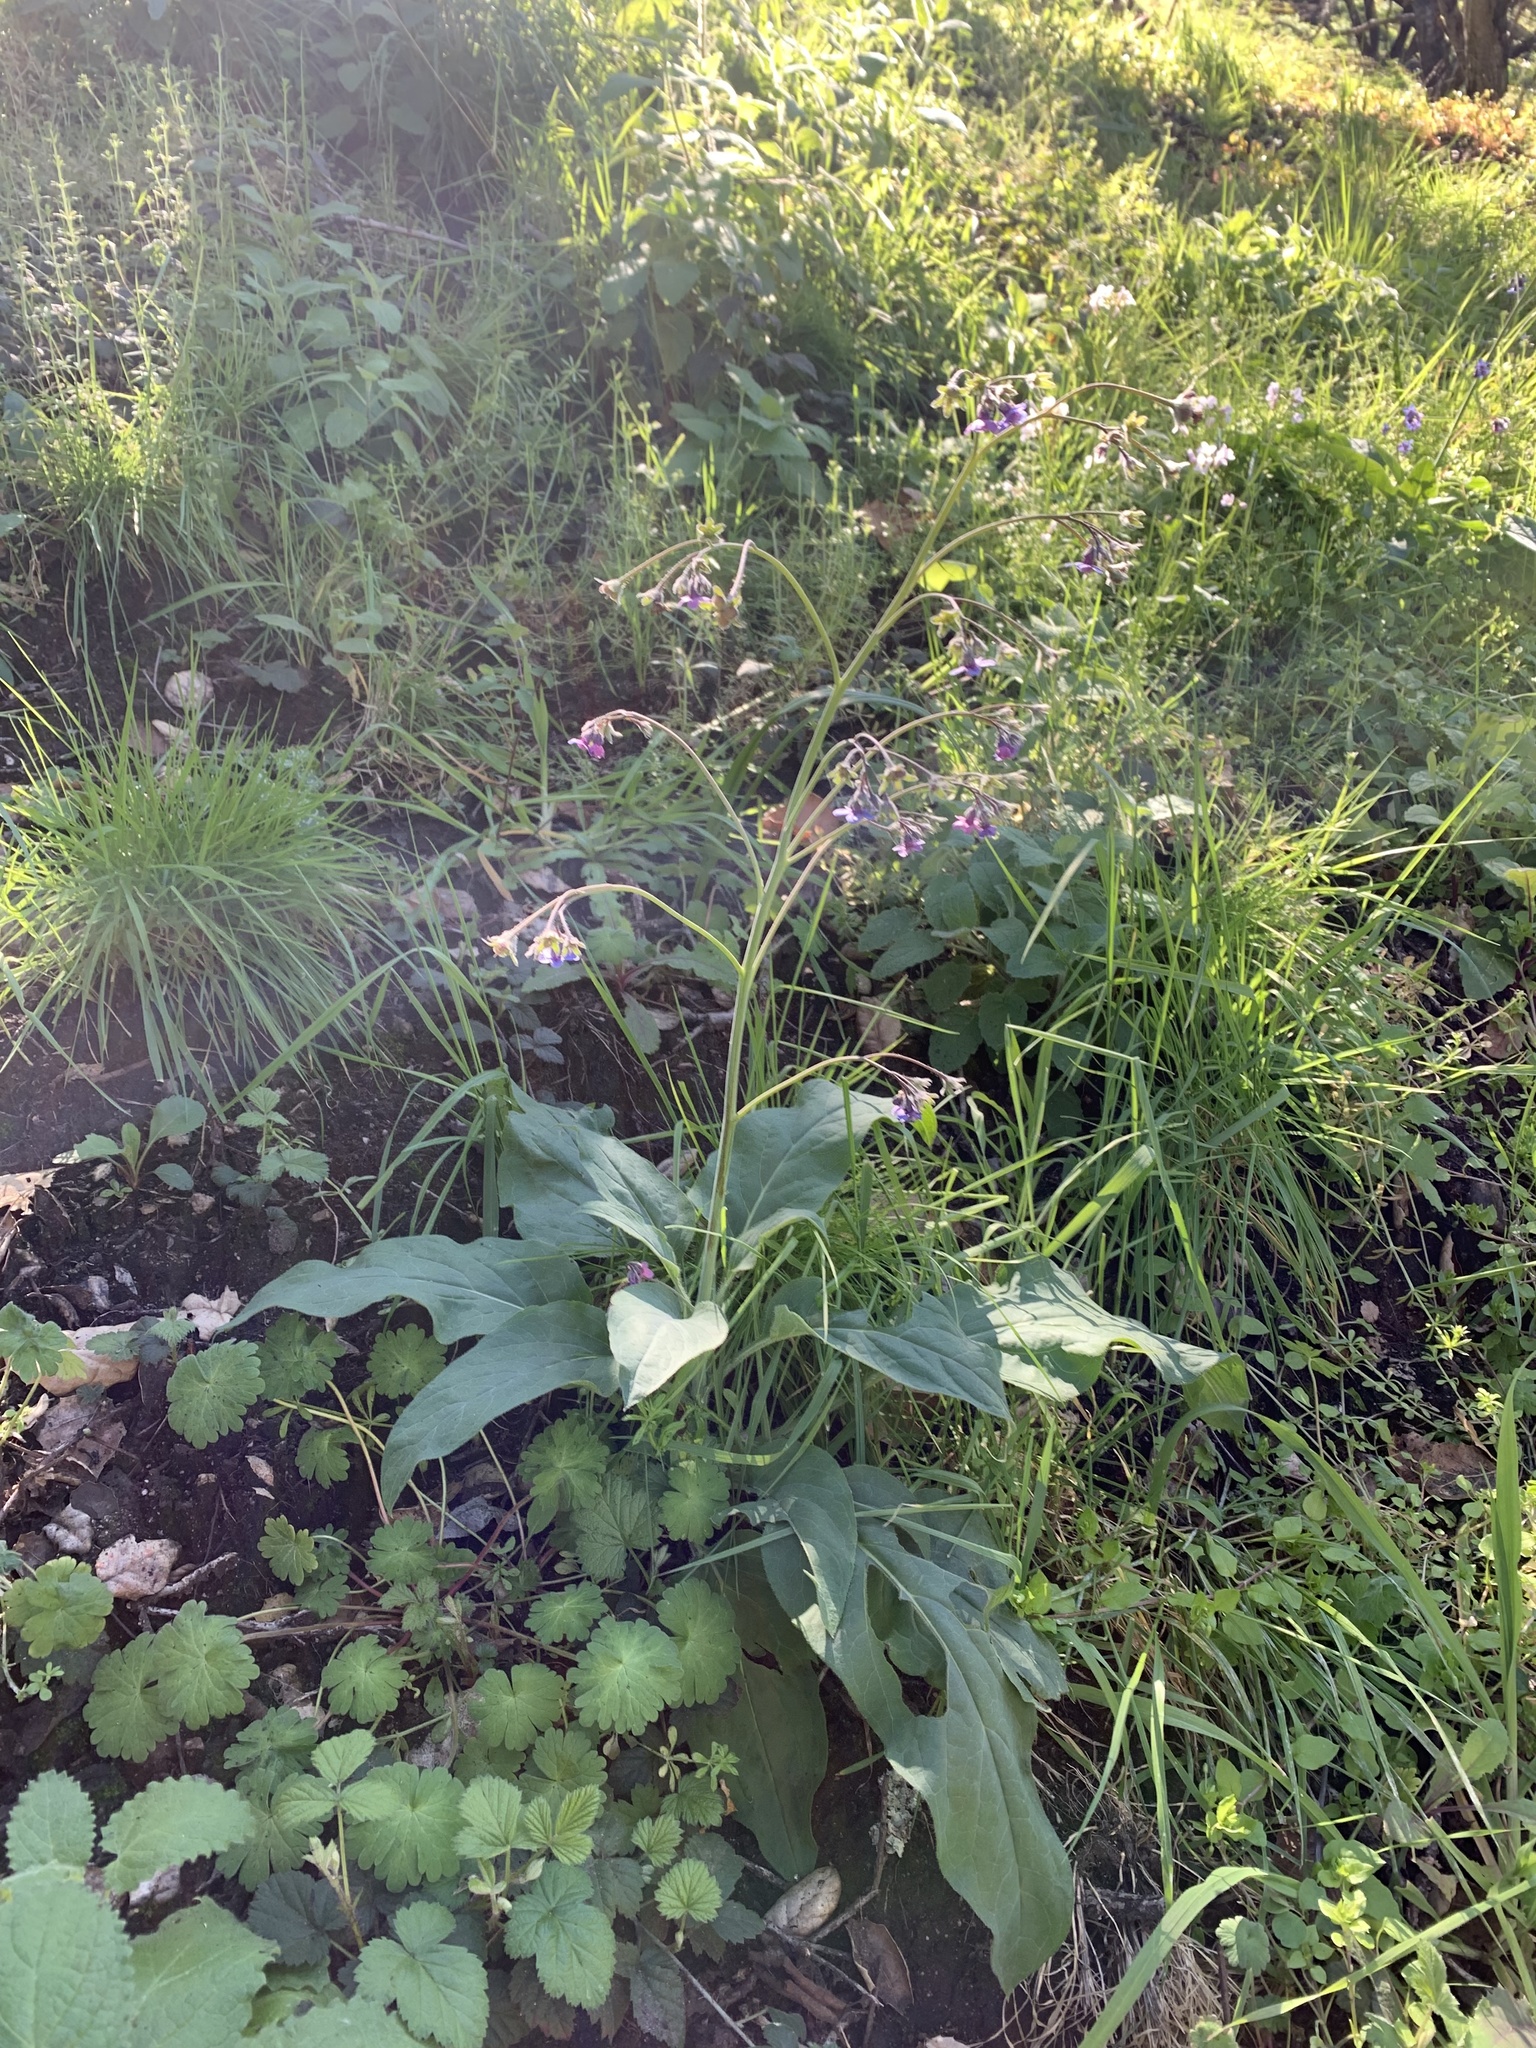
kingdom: Plantae
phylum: Tracheophyta
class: Magnoliopsida
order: Boraginales
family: Boraginaceae
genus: Adelinia
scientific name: Adelinia grande
